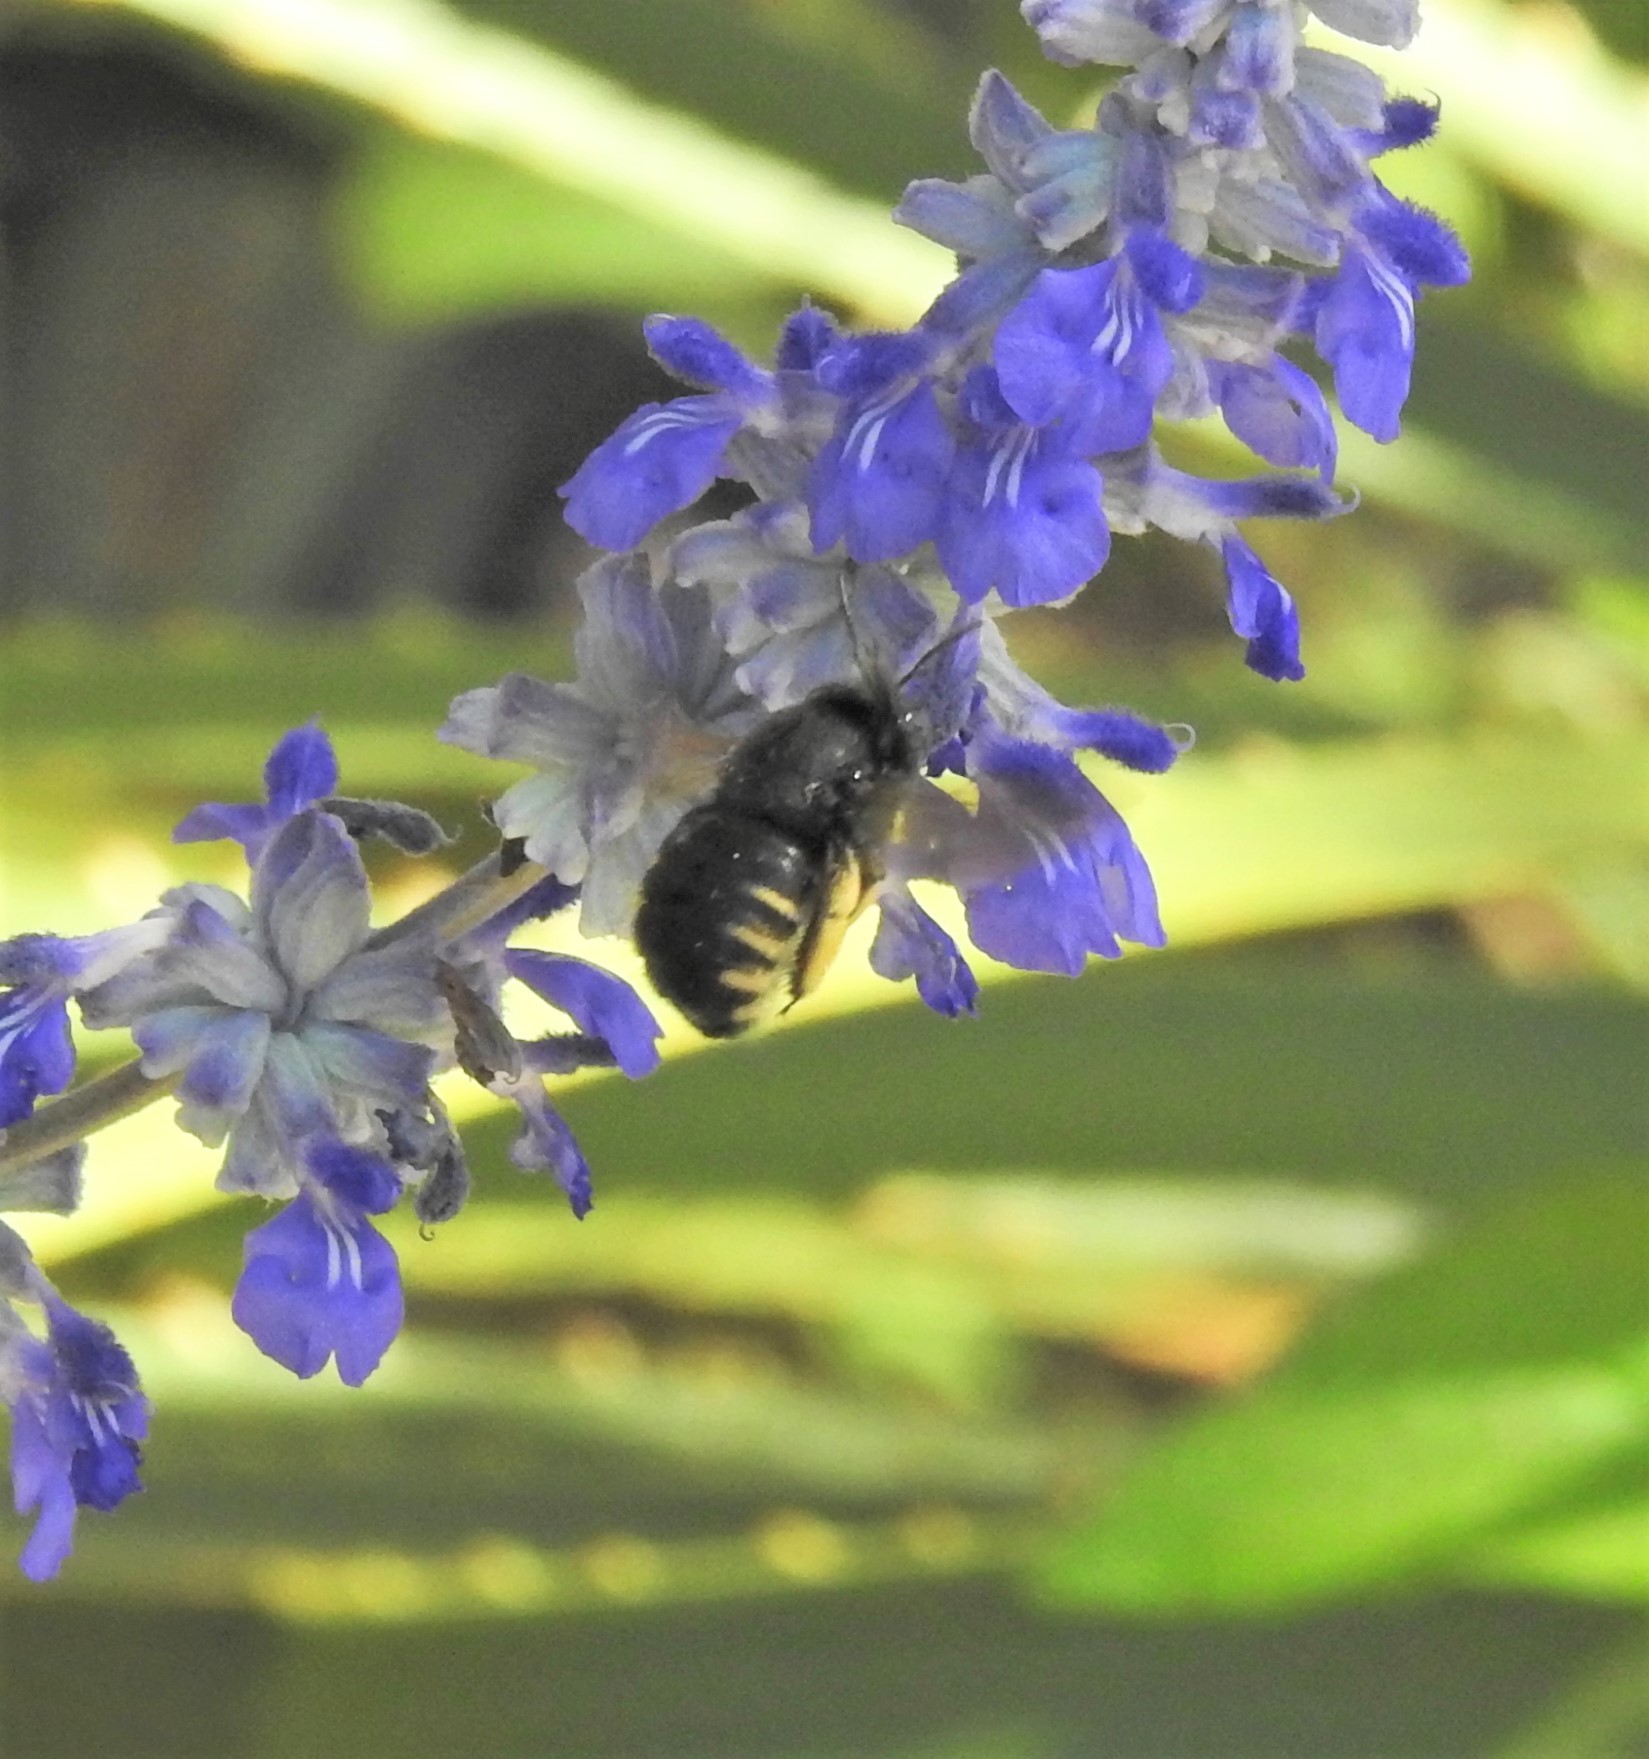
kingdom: Animalia
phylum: Arthropoda
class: Insecta
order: Hymenoptera
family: Apidae
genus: Xylocopa
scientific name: Xylocopa tabaniformis
